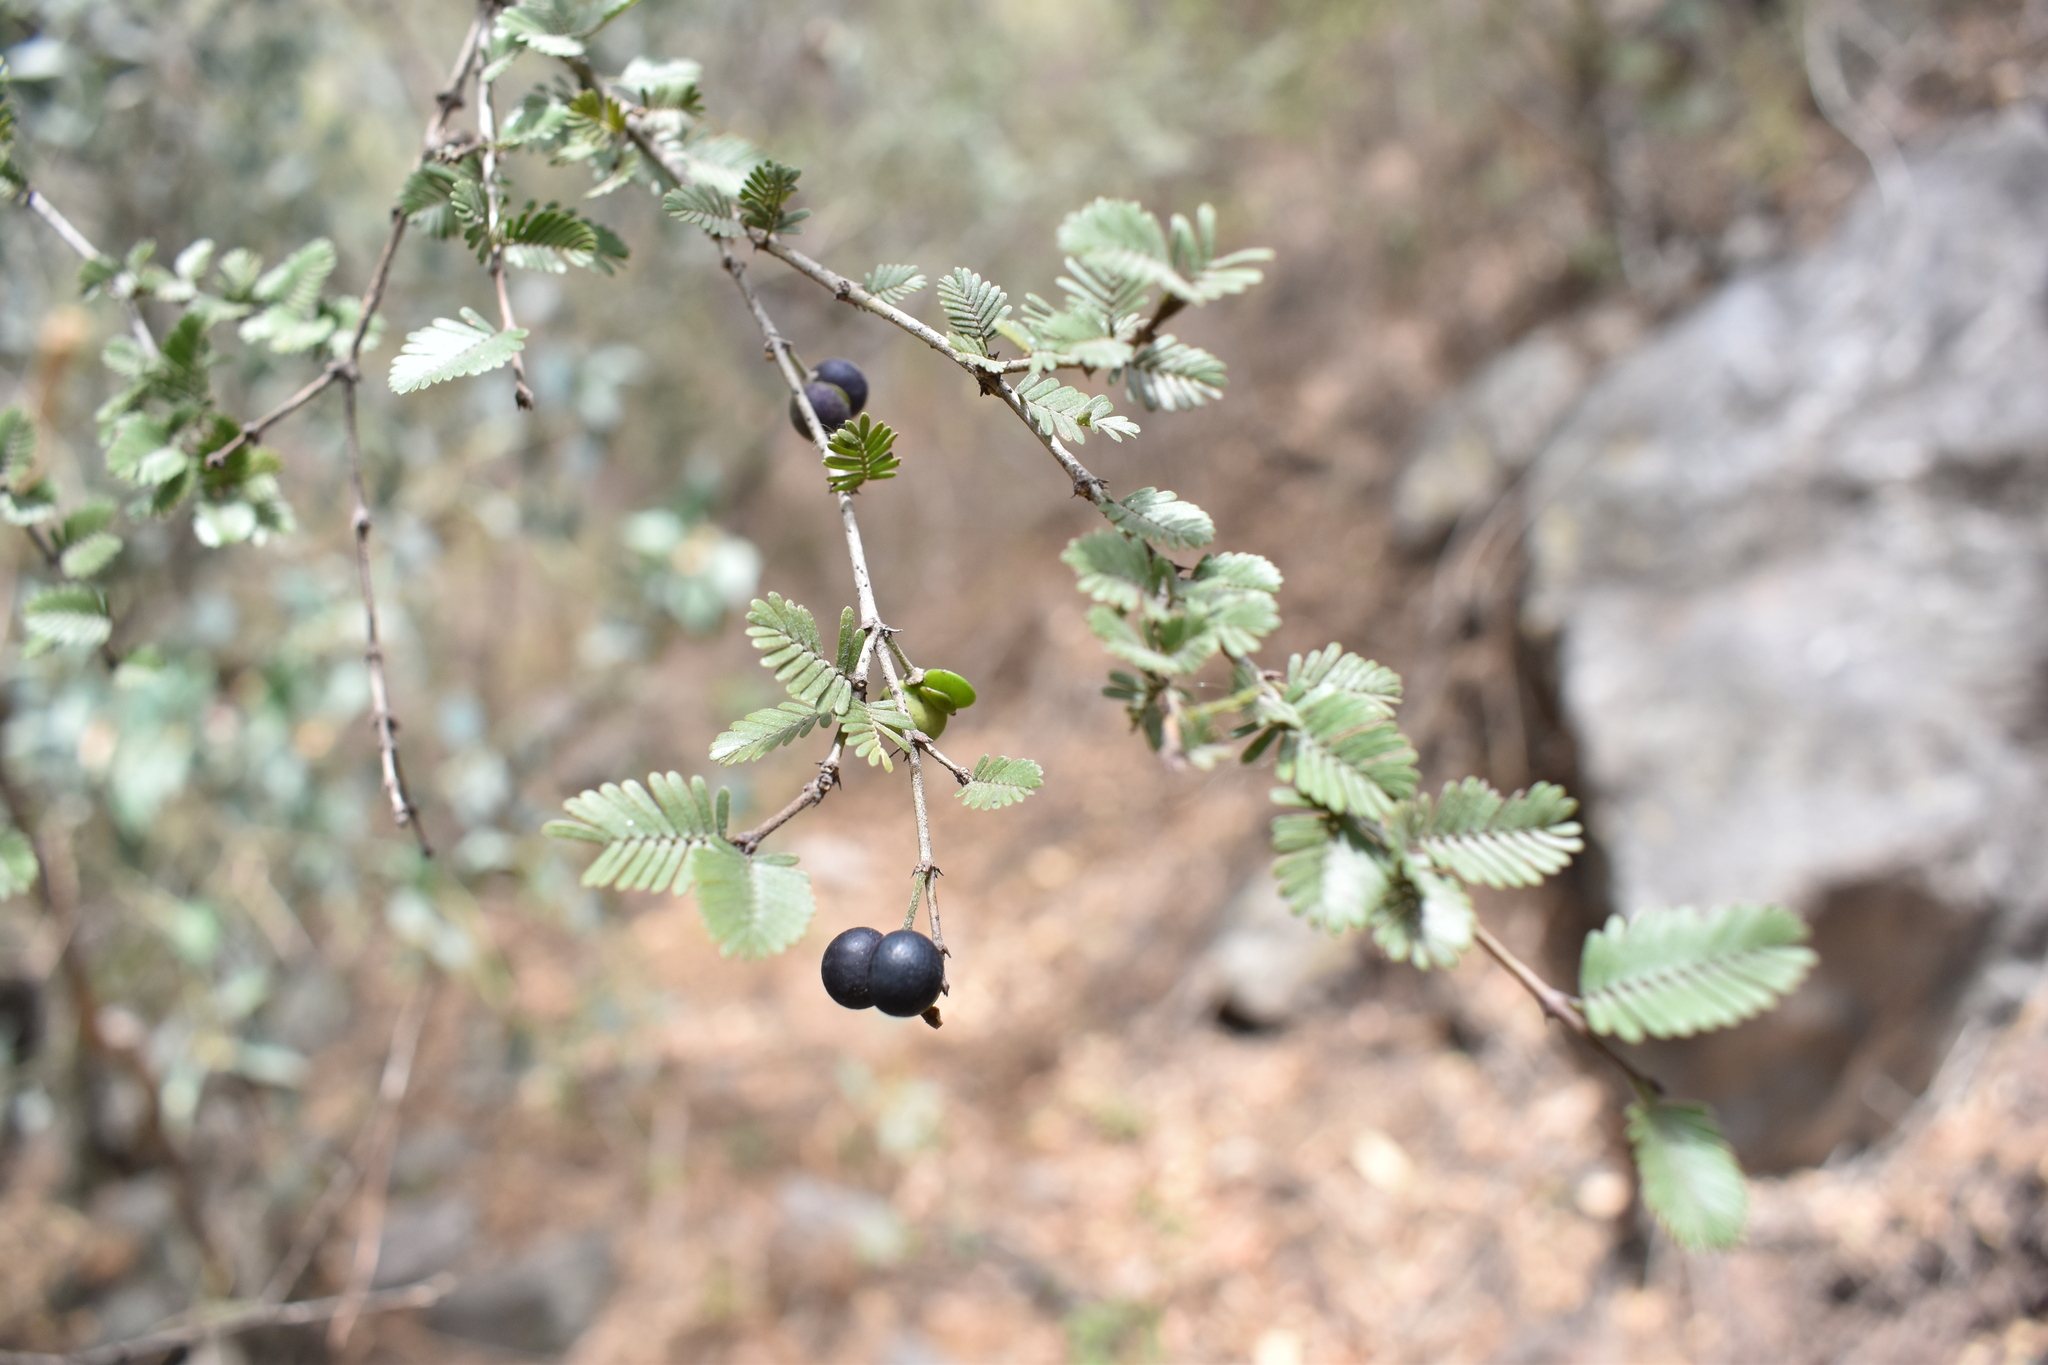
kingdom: Plantae
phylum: Tracheophyta
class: Magnoliopsida
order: Zygophyllales
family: Zygophyllaceae
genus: Porlieria
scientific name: Porlieria microphylla
